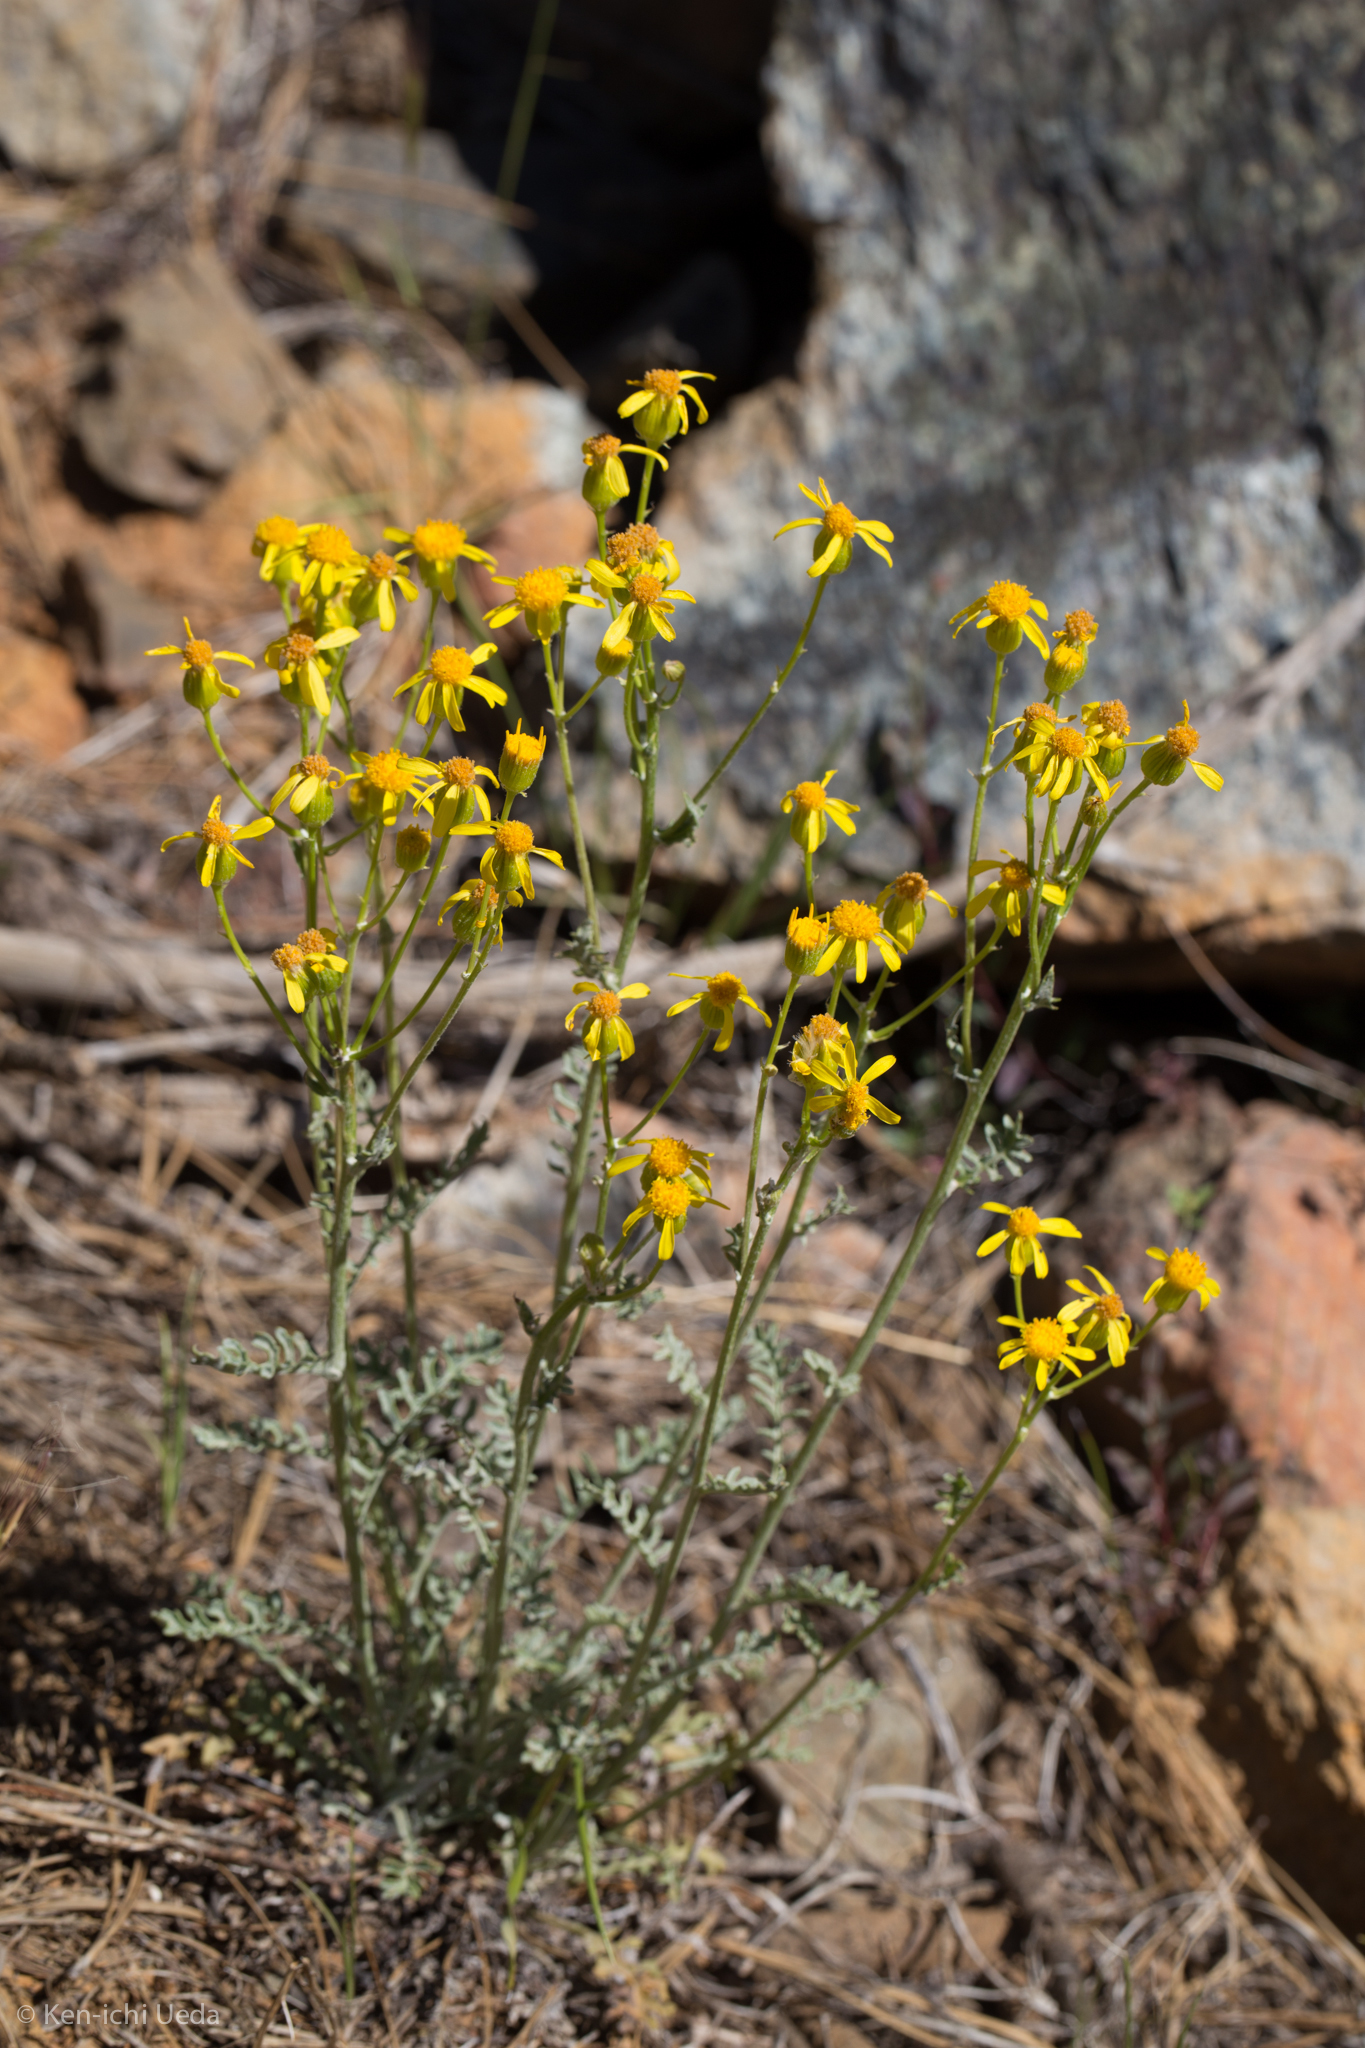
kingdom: Plantae
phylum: Tracheophyta
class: Magnoliopsida
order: Asterales
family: Asteraceae
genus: Packera
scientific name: Packera eurycephala
